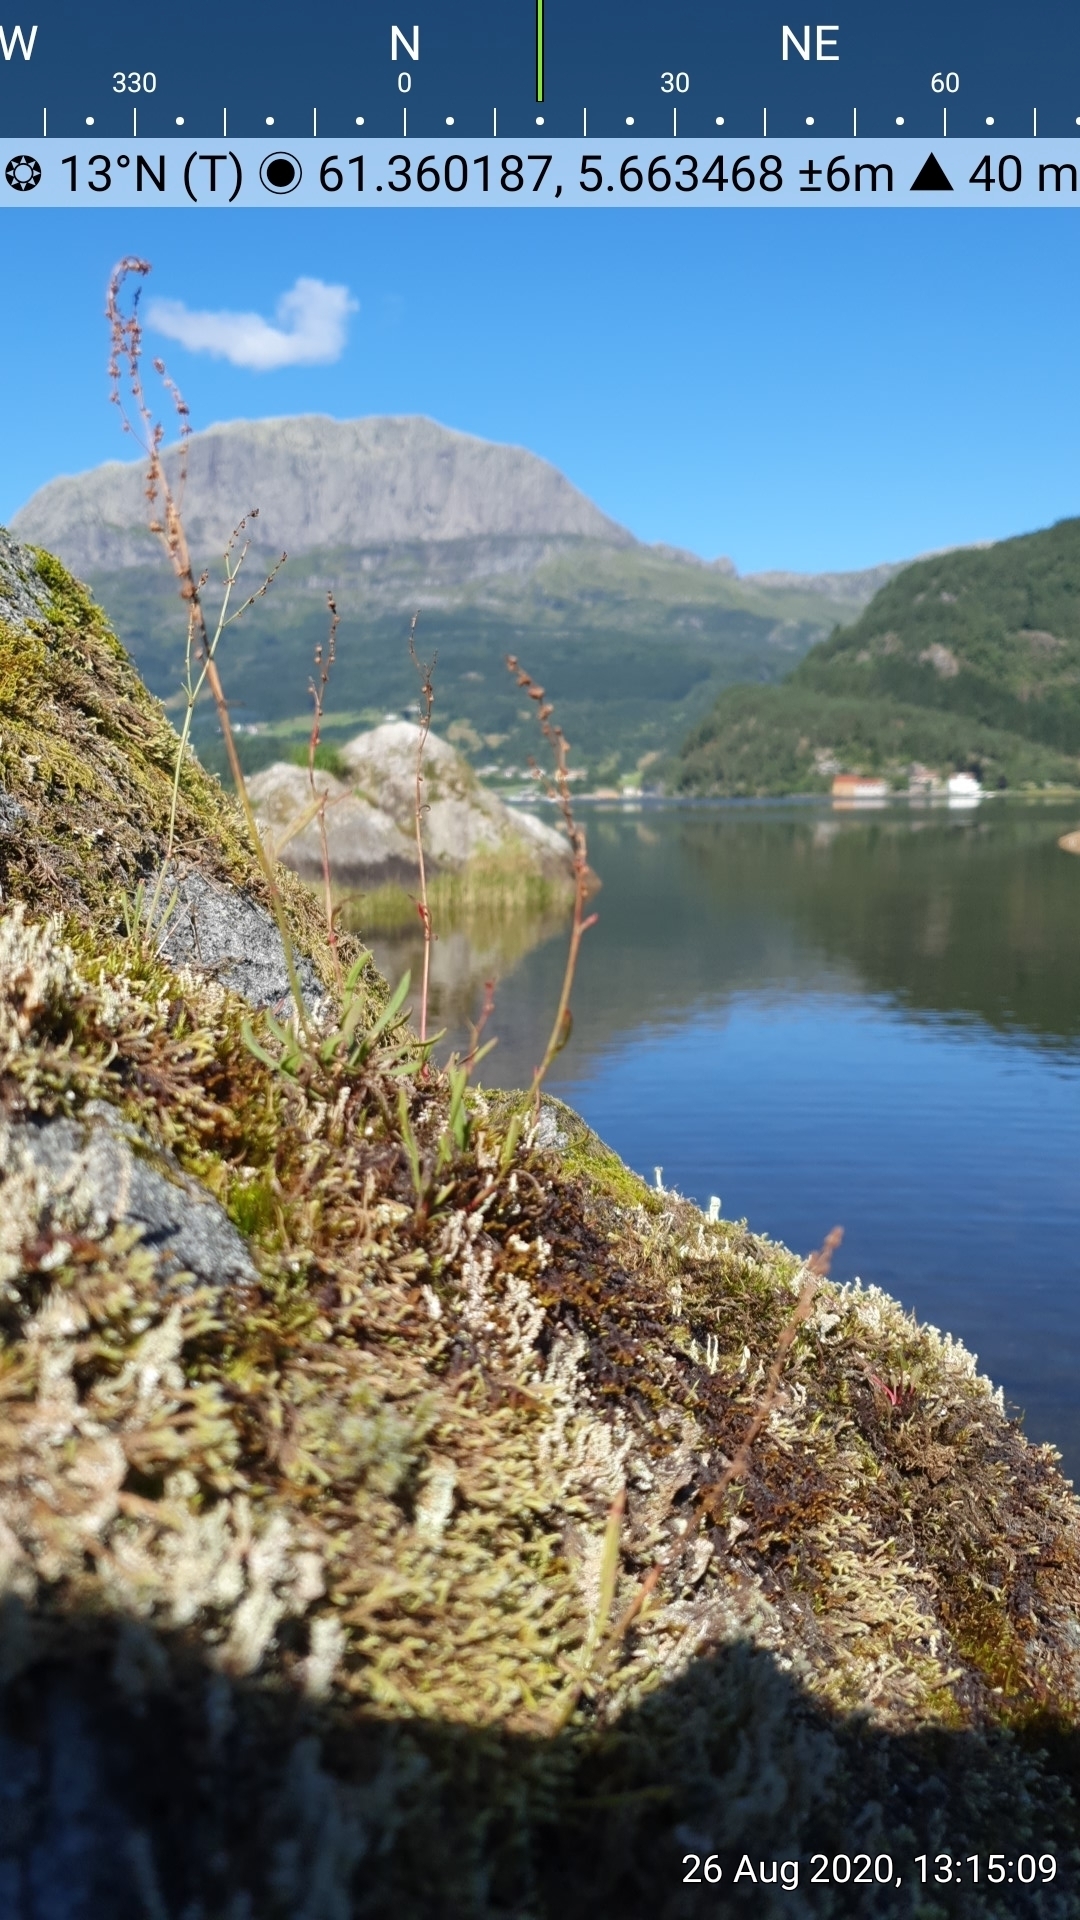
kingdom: Plantae
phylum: Tracheophyta
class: Magnoliopsida
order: Caryophyllales
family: Polygonaceae
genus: Rumex
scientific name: Rumex acetosella
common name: Common sheep sorrel
